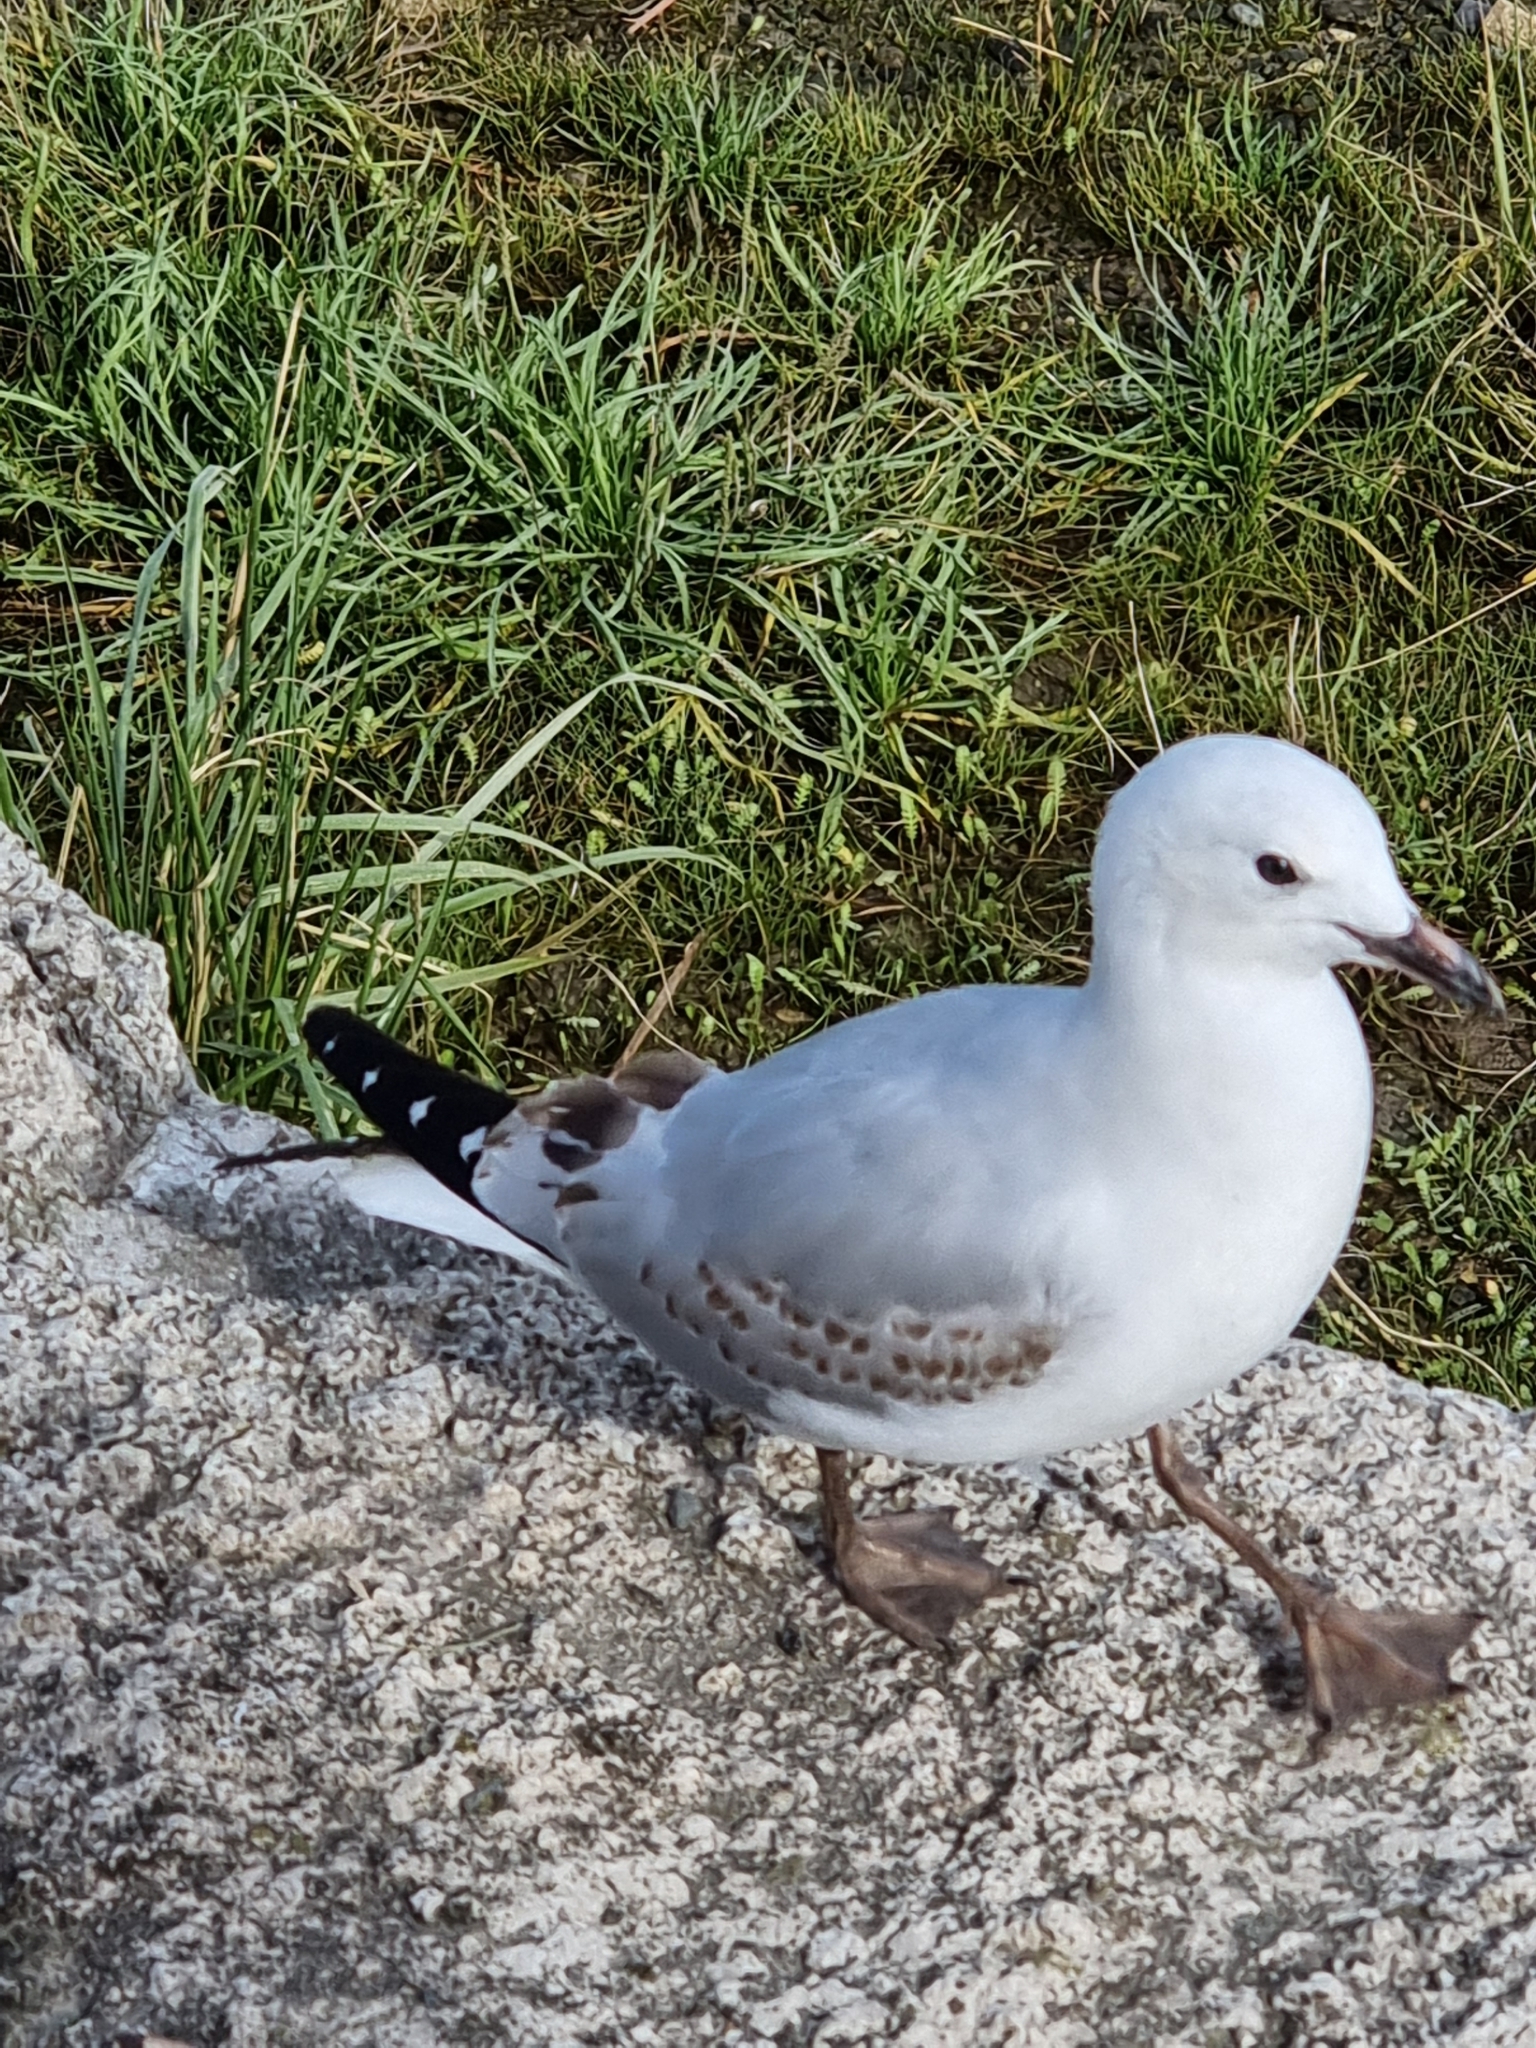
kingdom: Animalia
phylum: Chordata
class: Aves
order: Charadriiformes
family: Laridae
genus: Chroicocephalus
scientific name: Chroicocephalus novaehollandiae
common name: Silver gull
